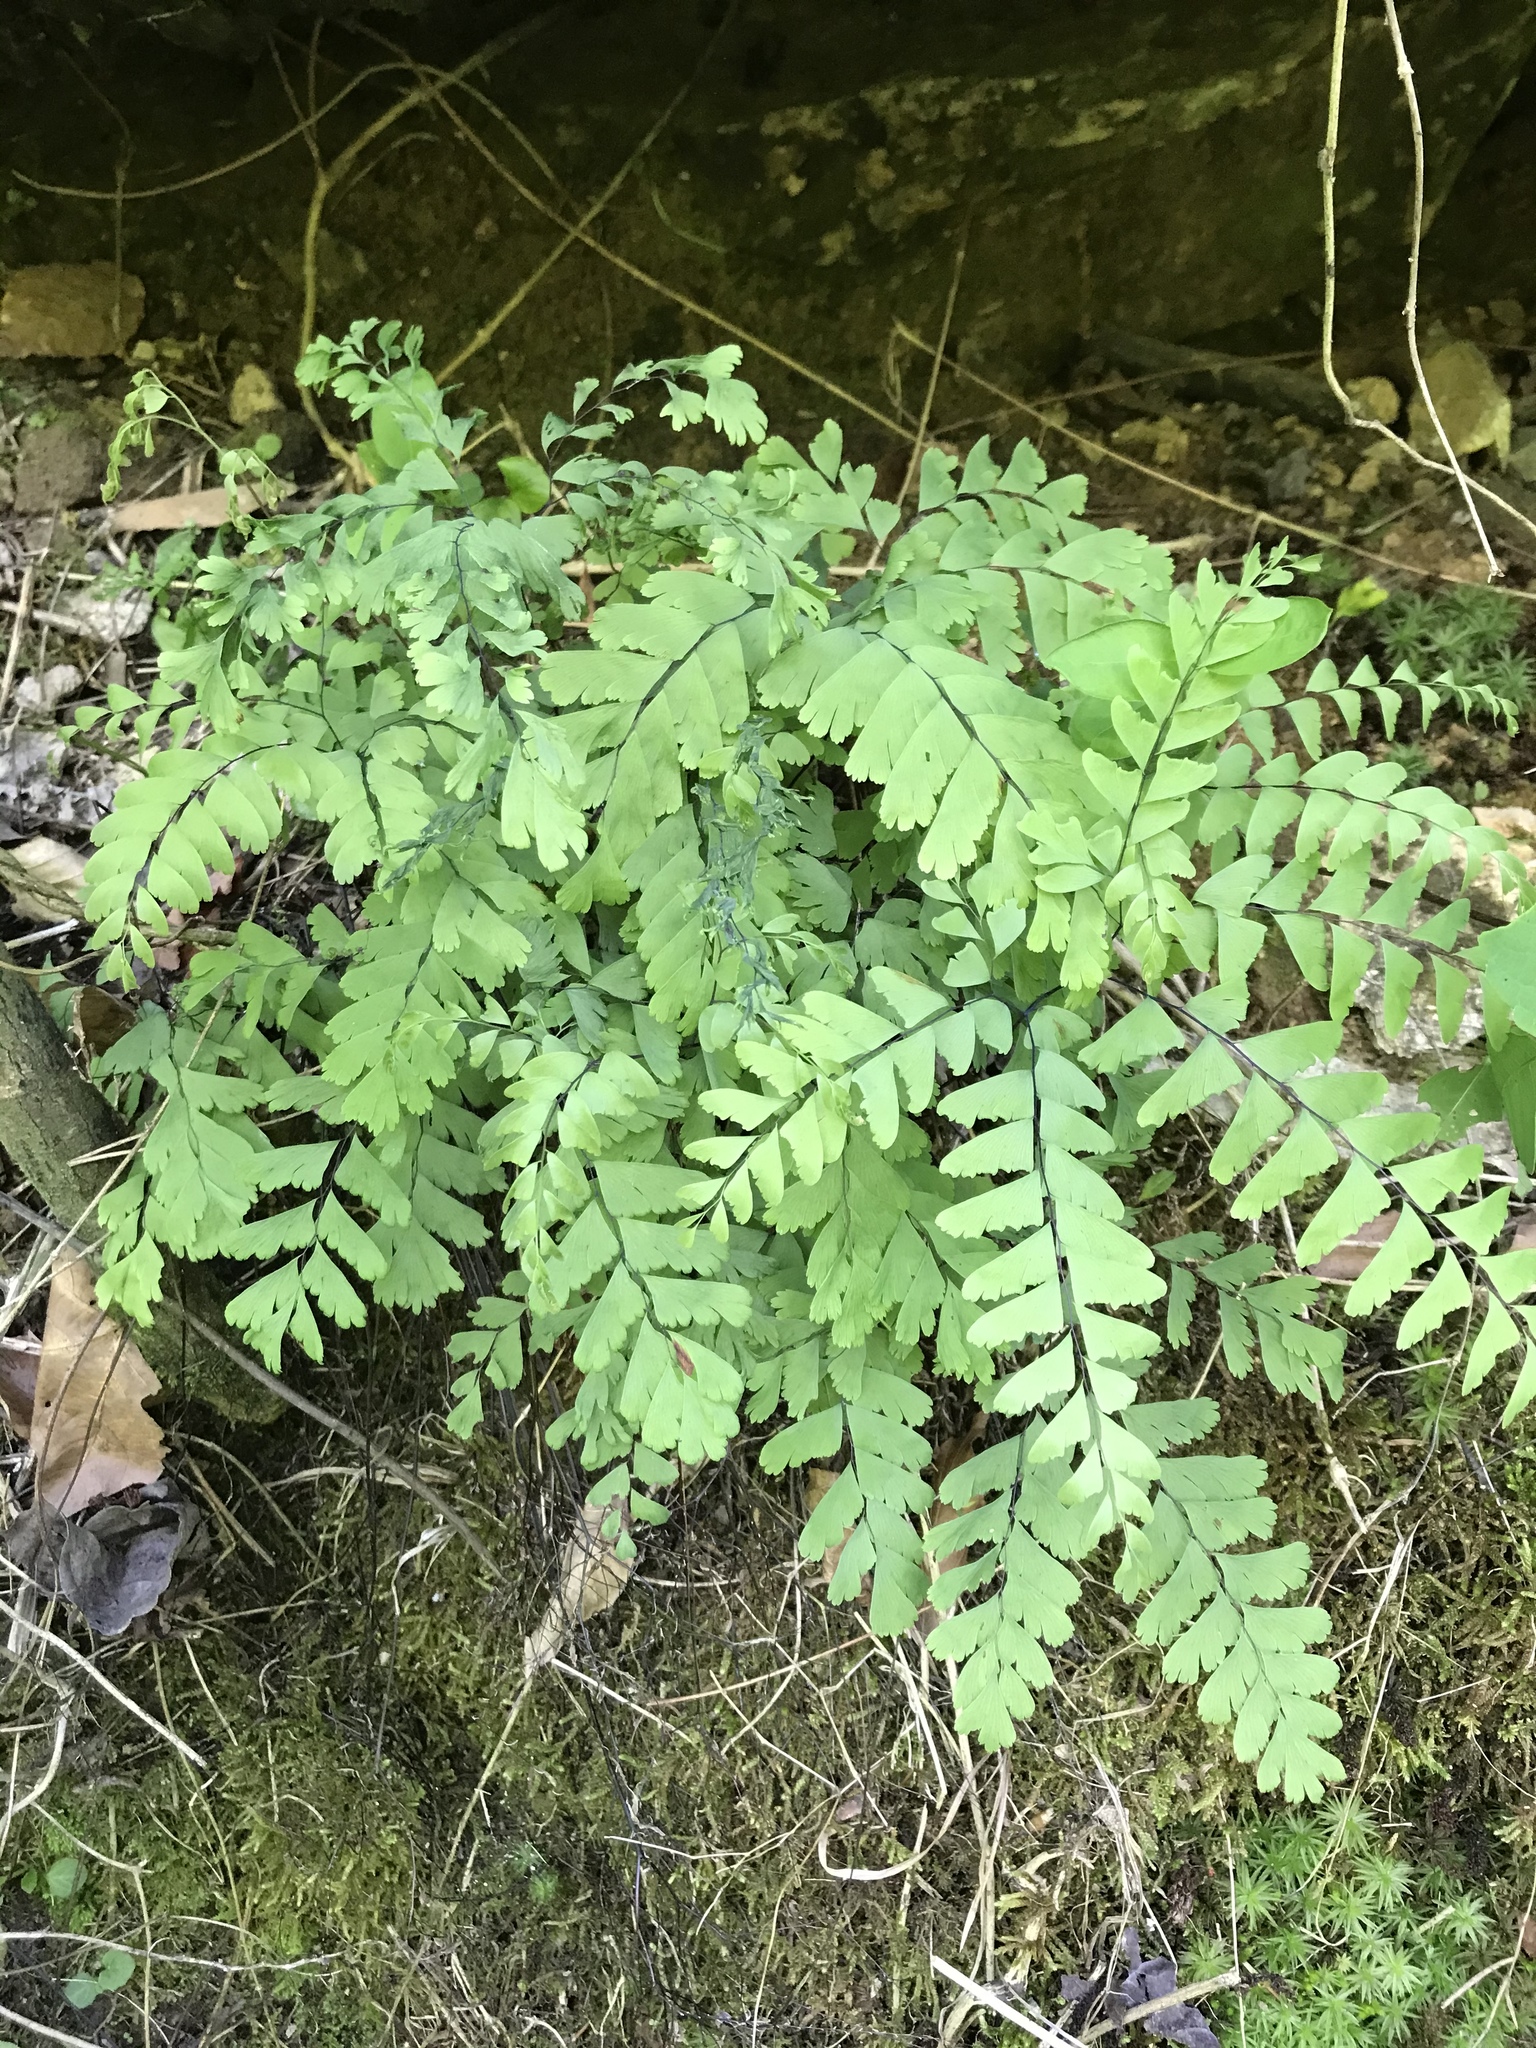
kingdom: Plantae
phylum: Tracheophyta
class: Polypodiopsida
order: Polypodiales
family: Pteridaceae
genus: Adiantum
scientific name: Adiantum pedatum
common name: Five-finger fern
